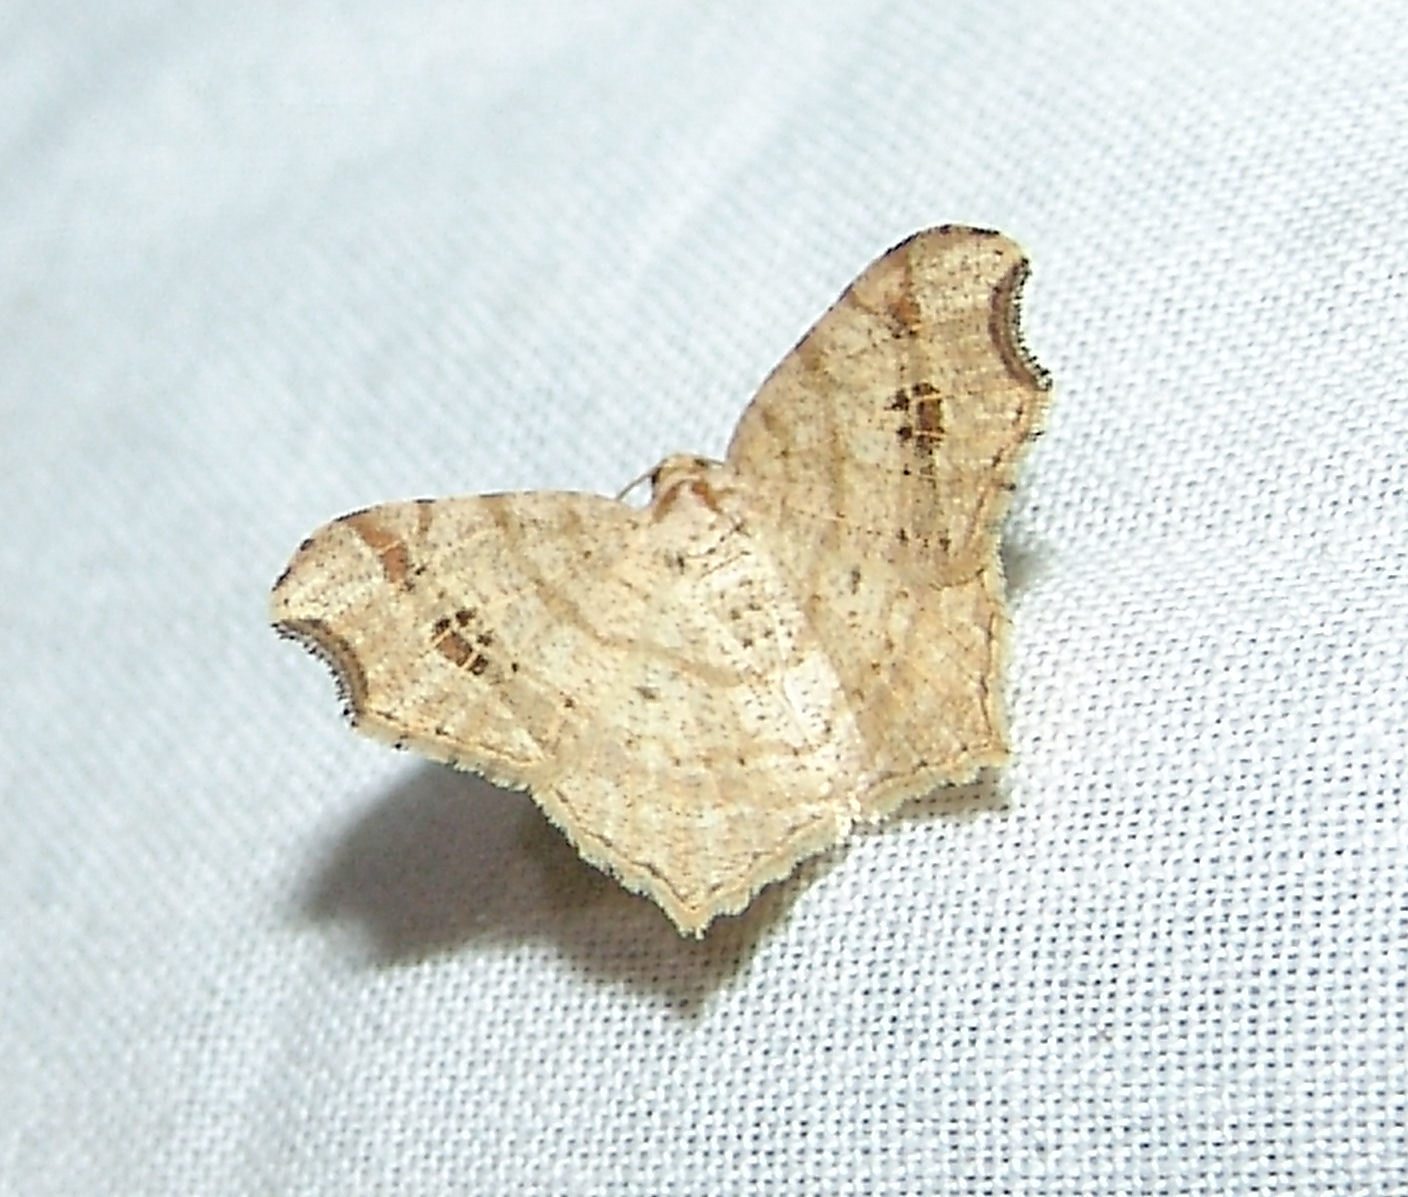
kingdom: Animalia
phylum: Arthropoda
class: Insecta
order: Lepidoptera
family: Geometridae
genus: Macaria
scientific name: Macaria aemulataria
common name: Common angle
